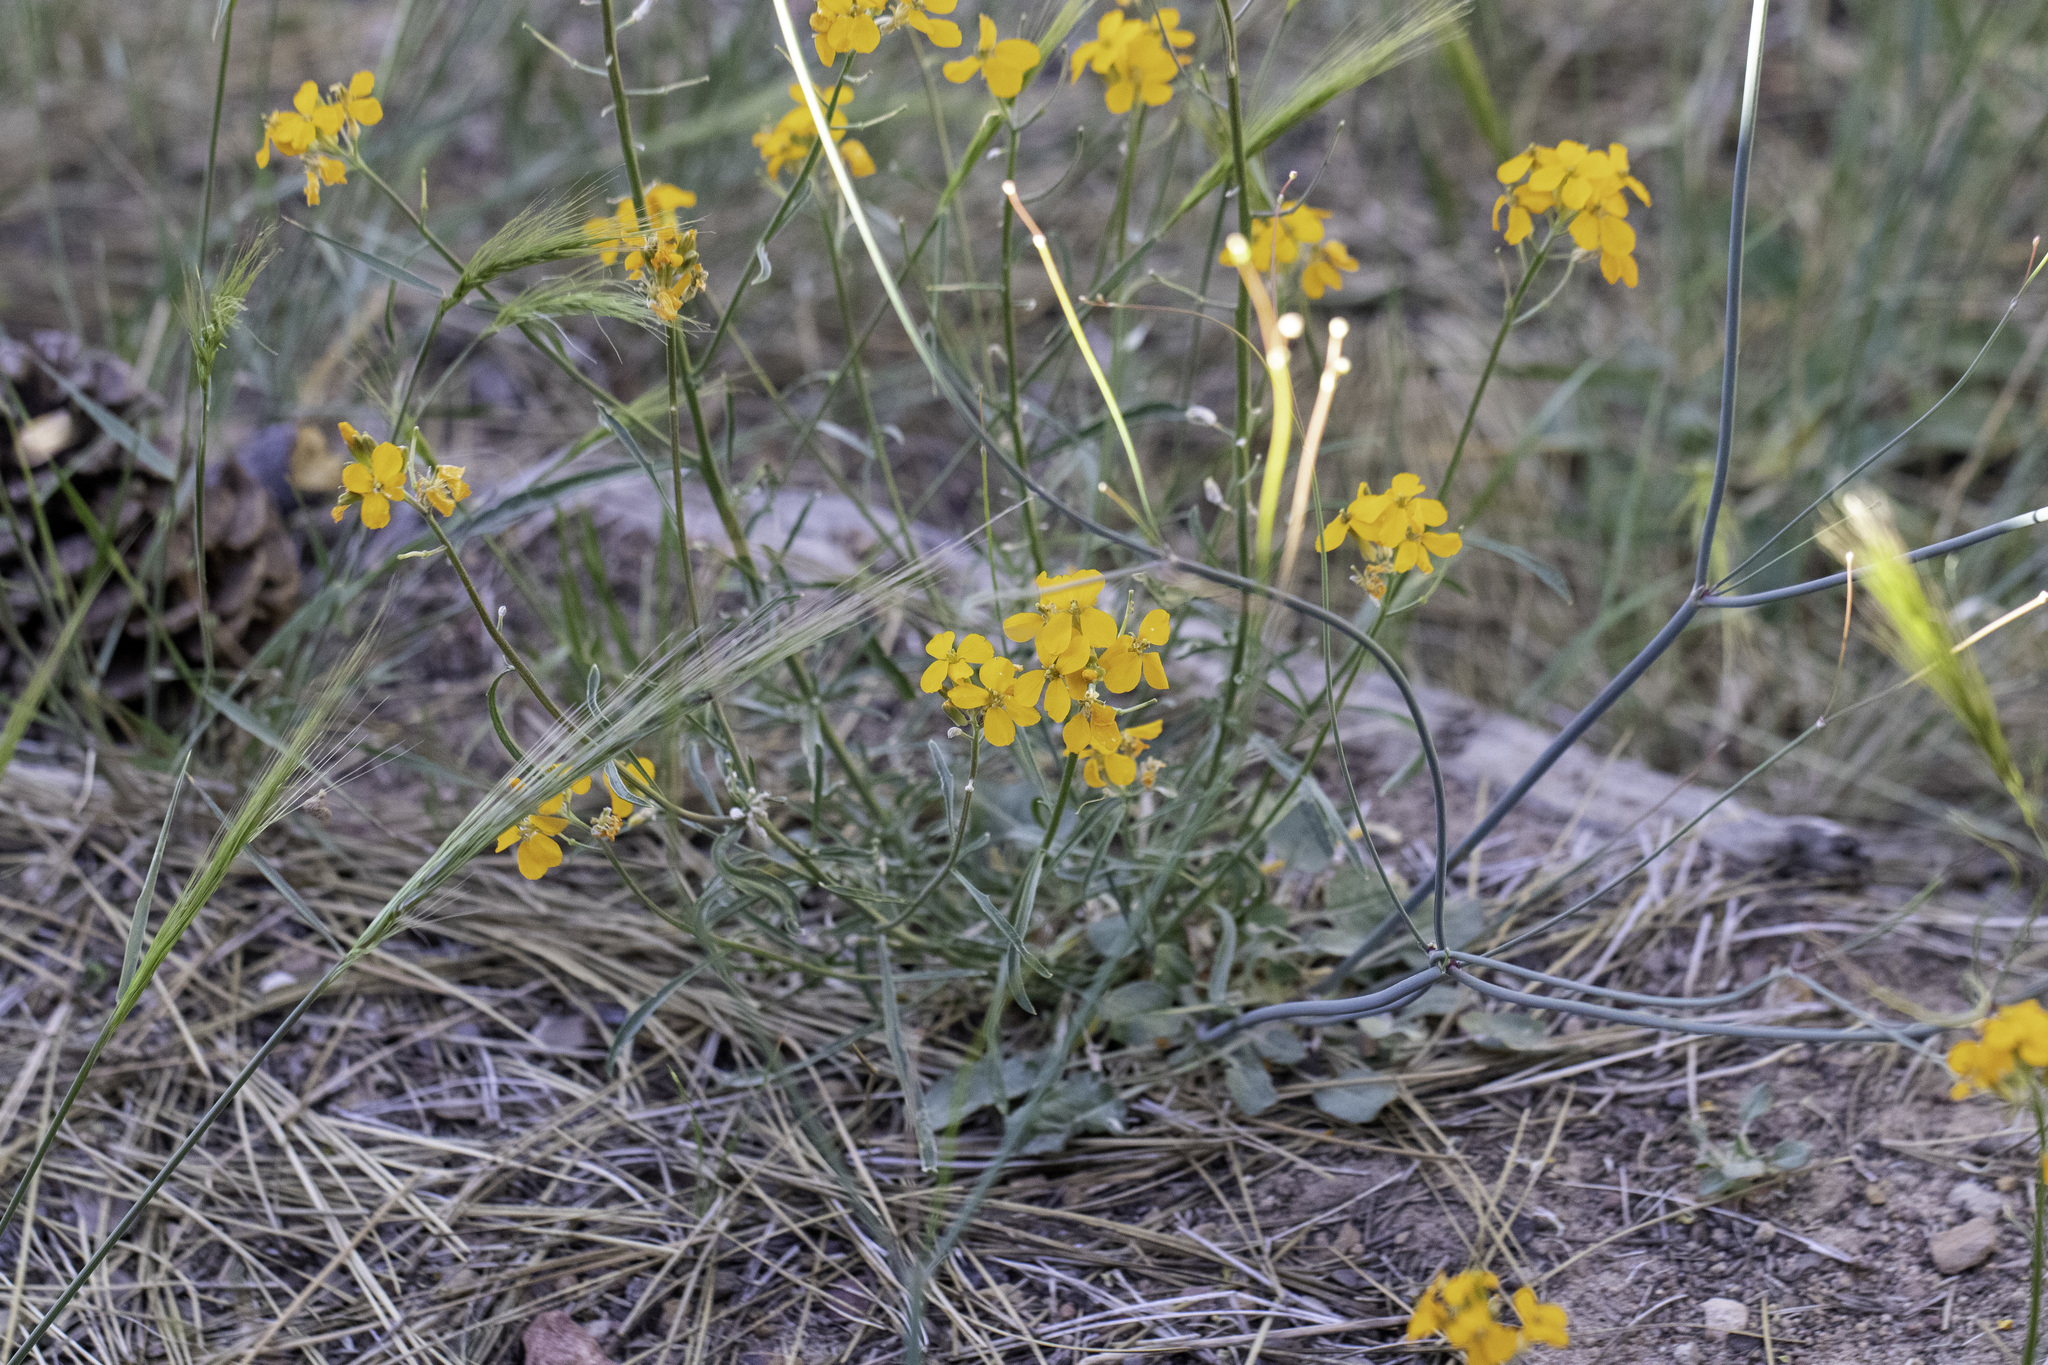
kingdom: Plantae
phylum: Tracheophyta
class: Magnoliopsida
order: Brassicales
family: Brassicaceae
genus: Erysimum
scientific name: Erysimum capitatum
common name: Western wallflower
